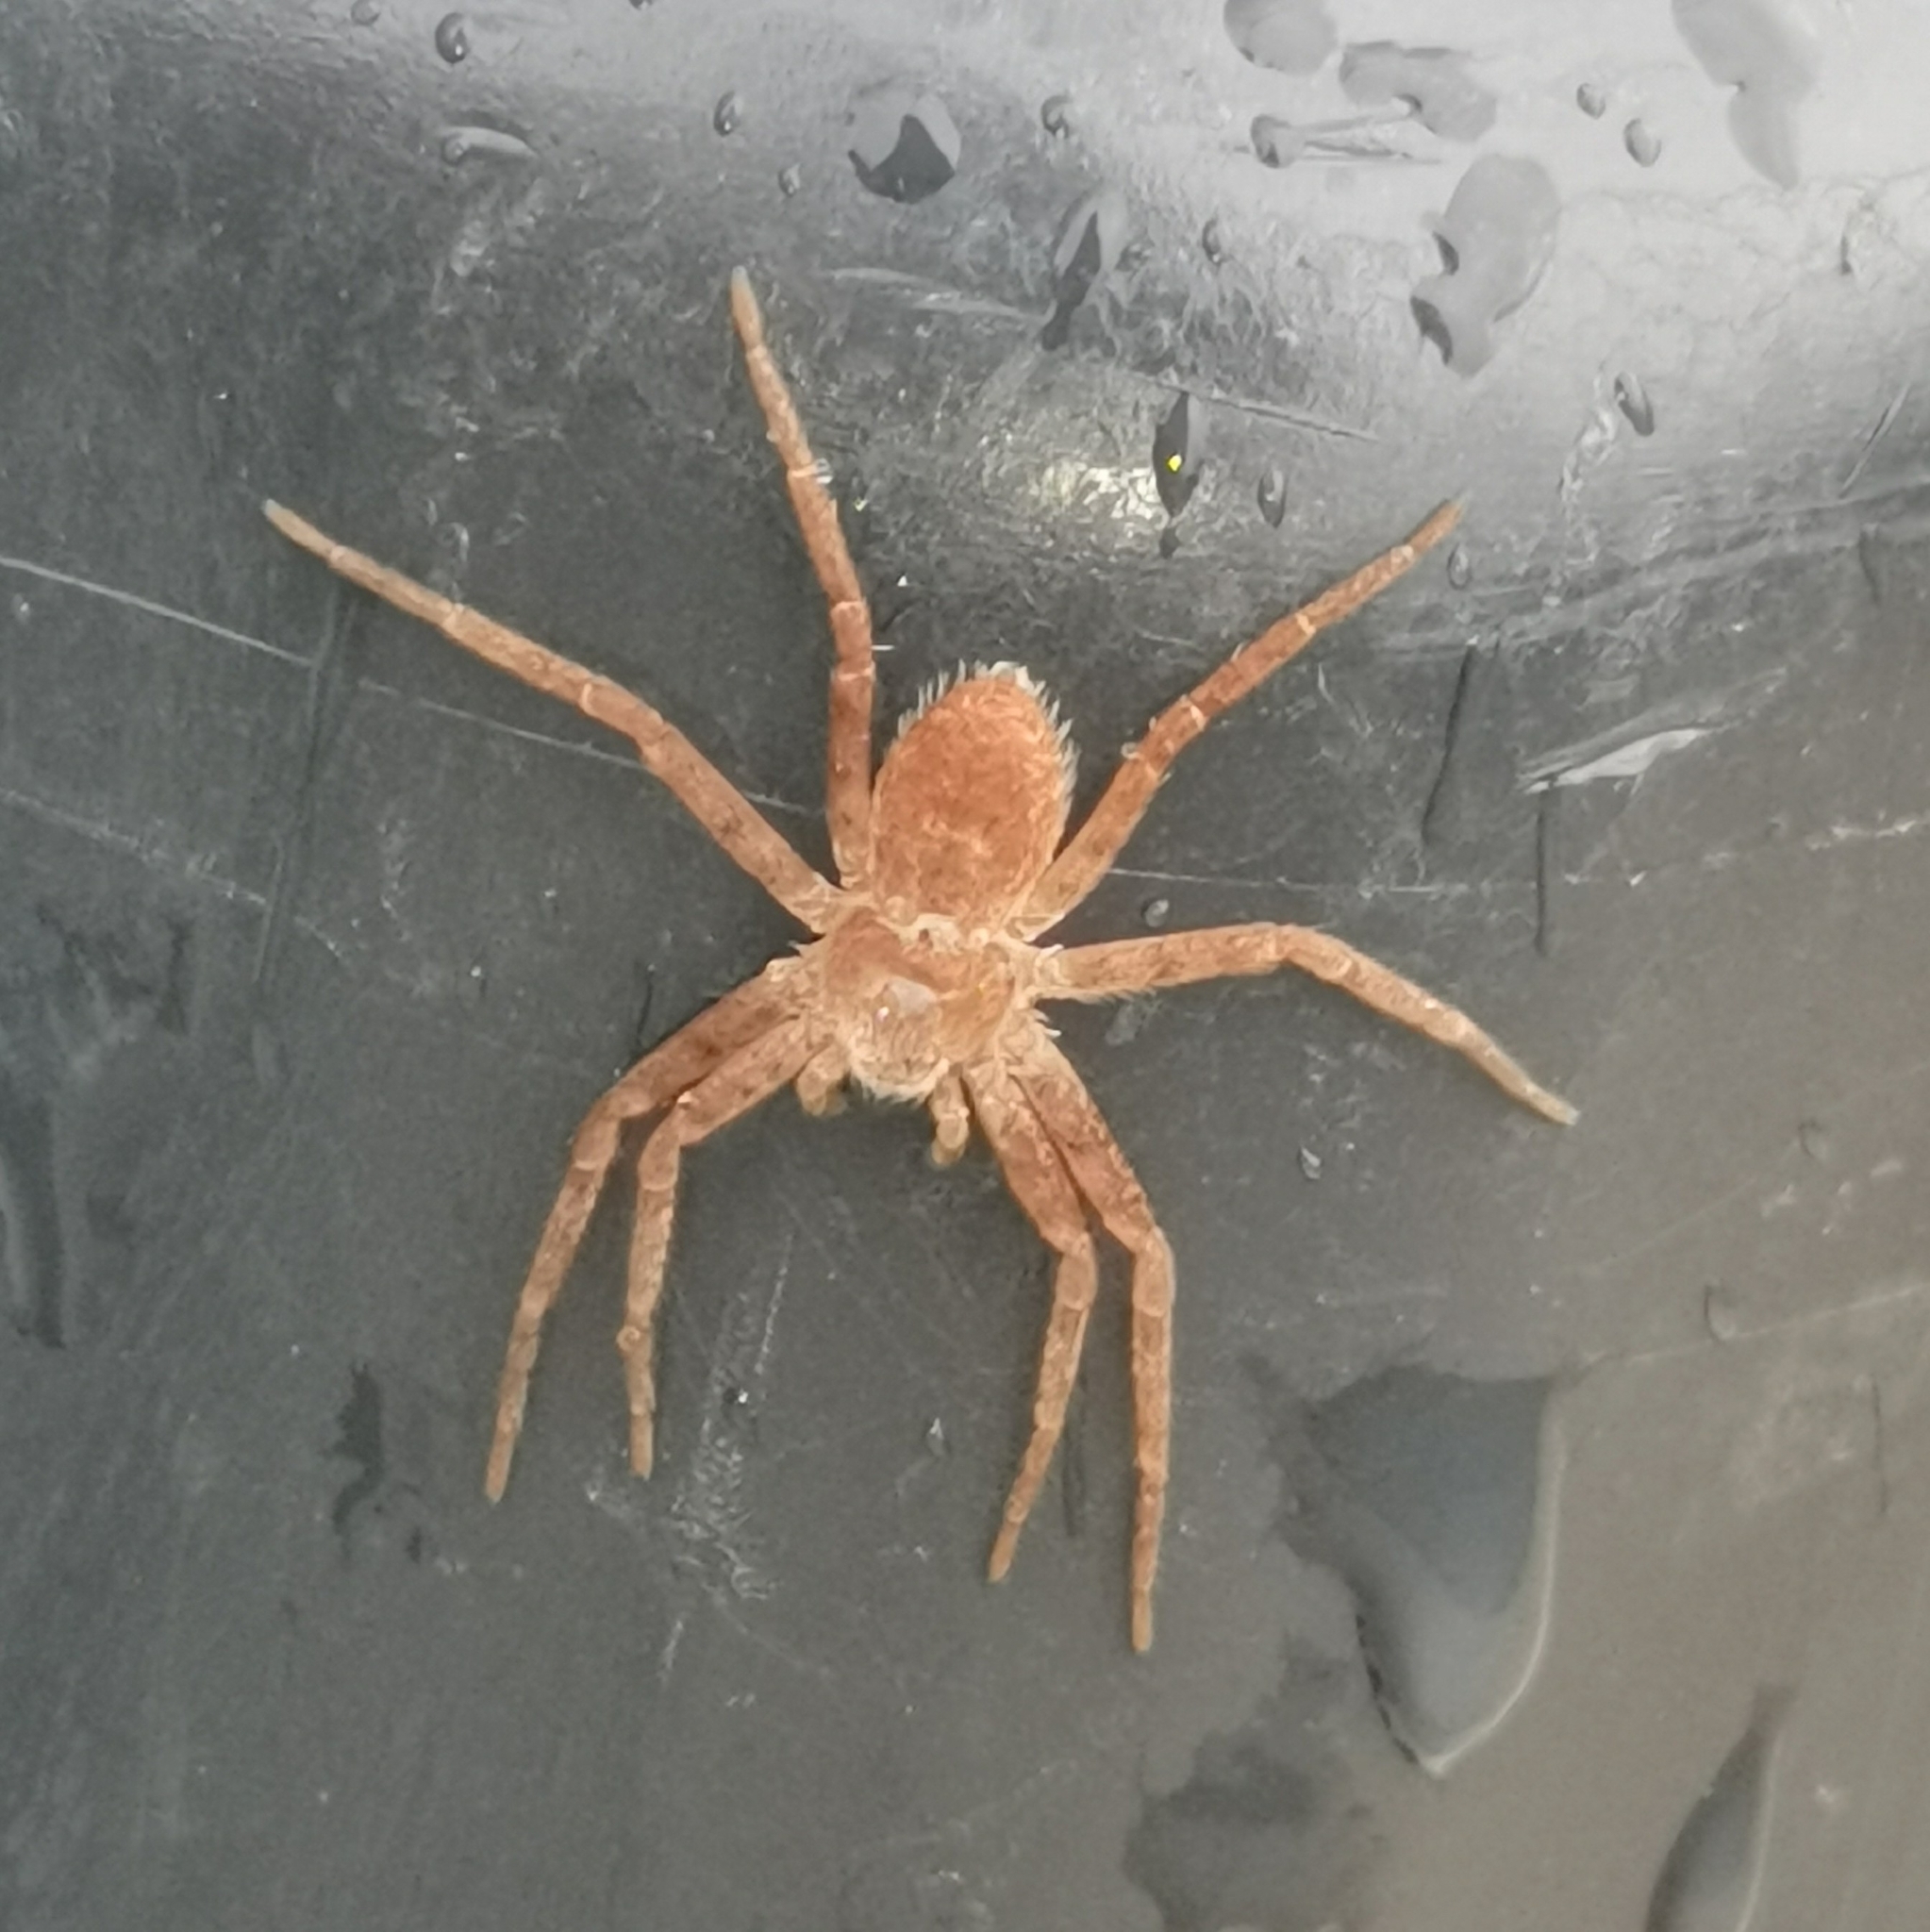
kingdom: Animalia
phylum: Arthropoda
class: Arachnida
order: Araneae
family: Philodromidae
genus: Philodromus
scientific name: Philodromus fuscomarginatus
